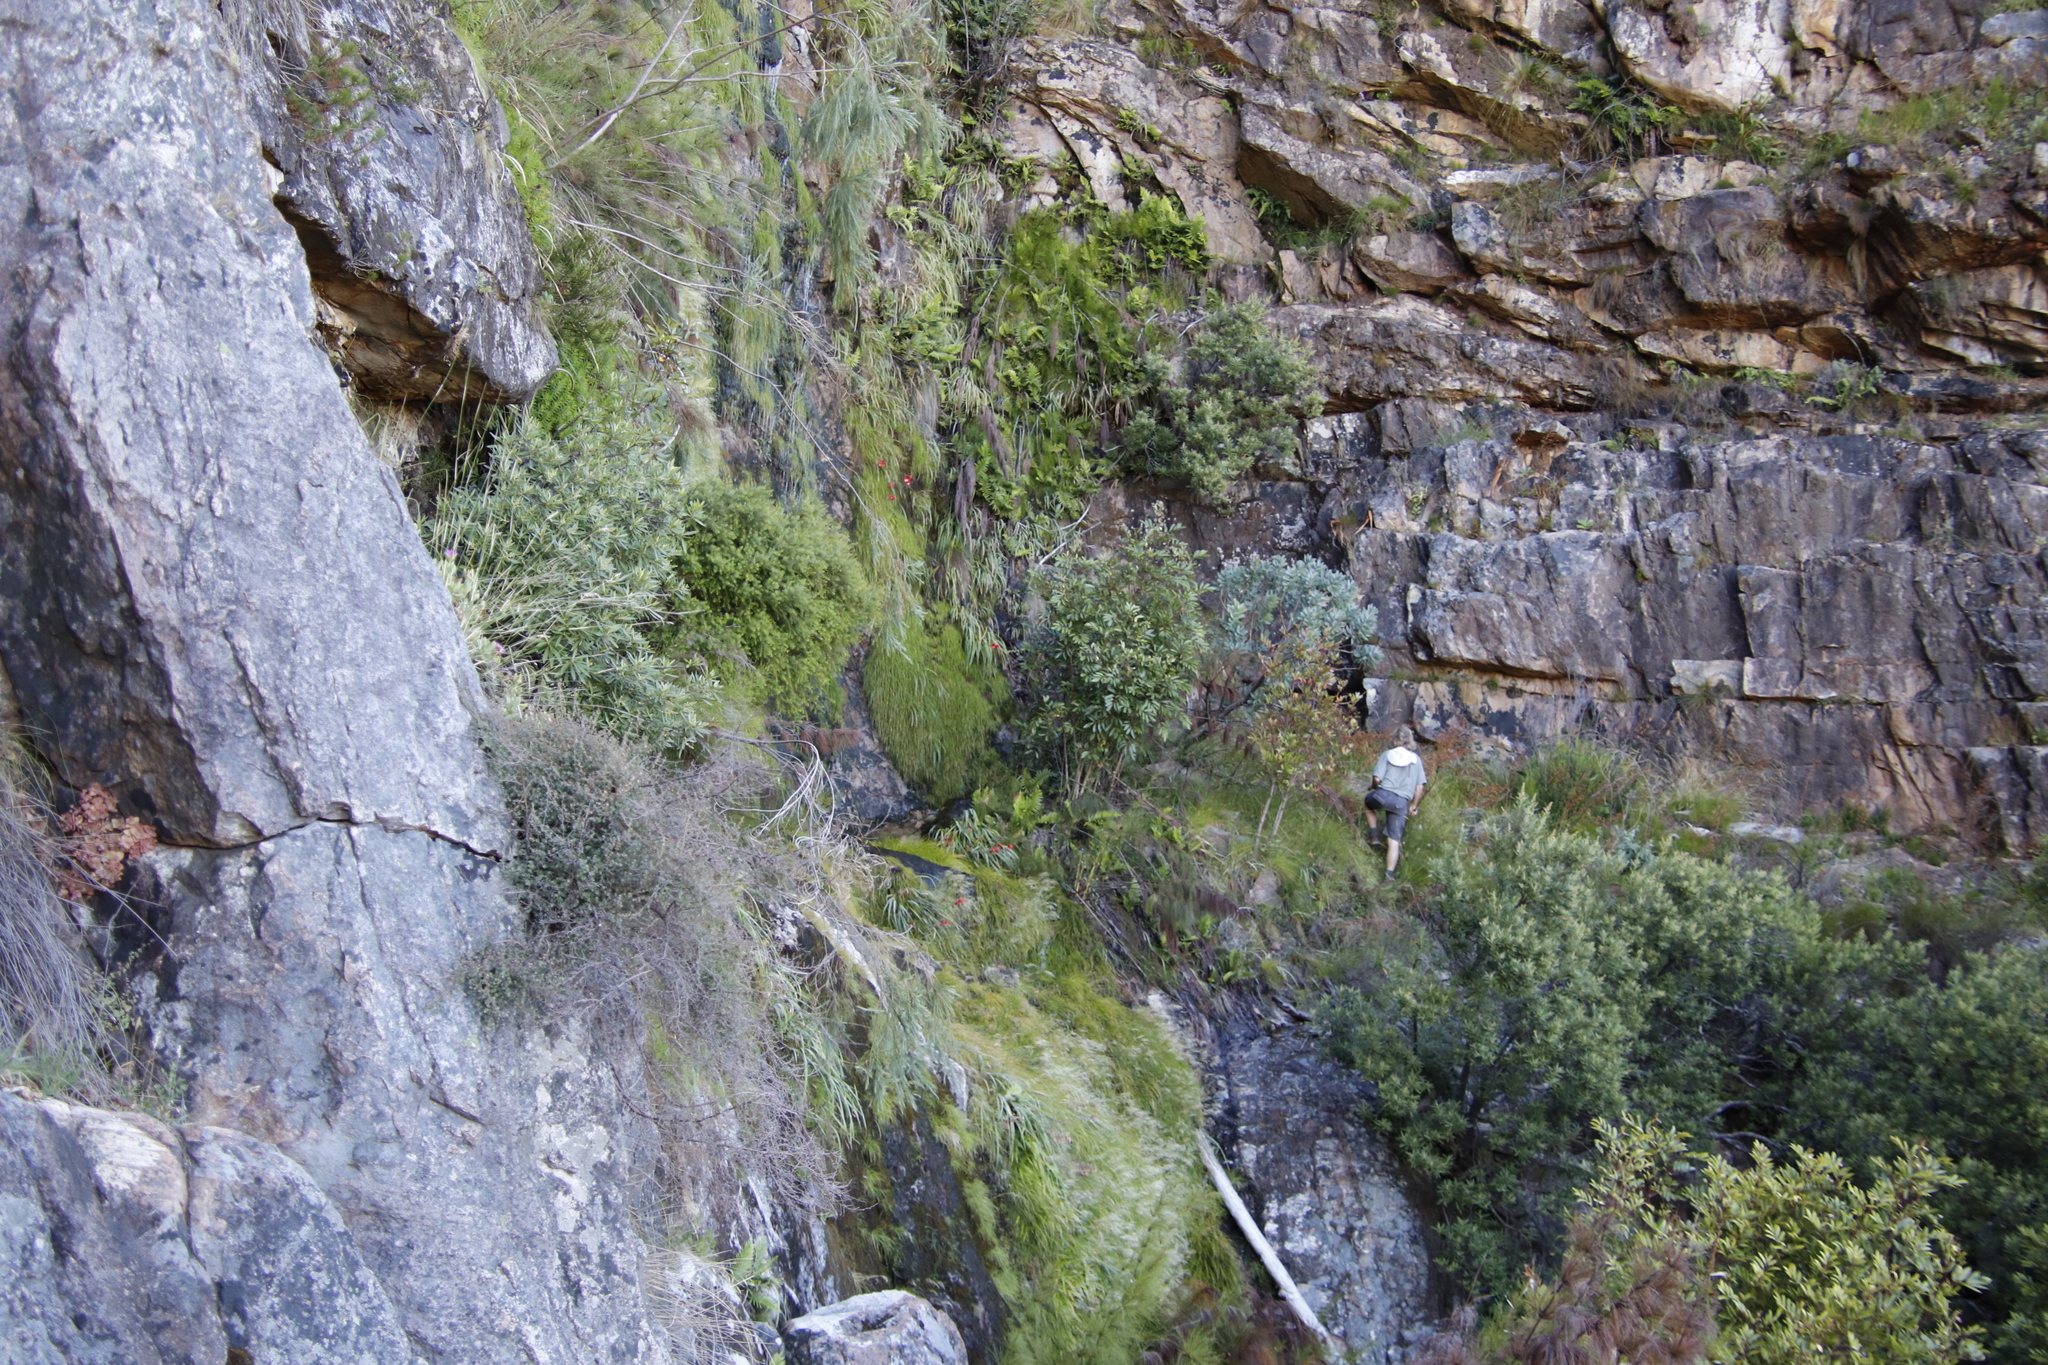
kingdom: Plantae
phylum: Tracheophyta
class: Liliopsida
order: Asparagales
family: Iridaceae
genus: Gladiolus
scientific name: Gladiolus cardinalis
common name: New year-lily
